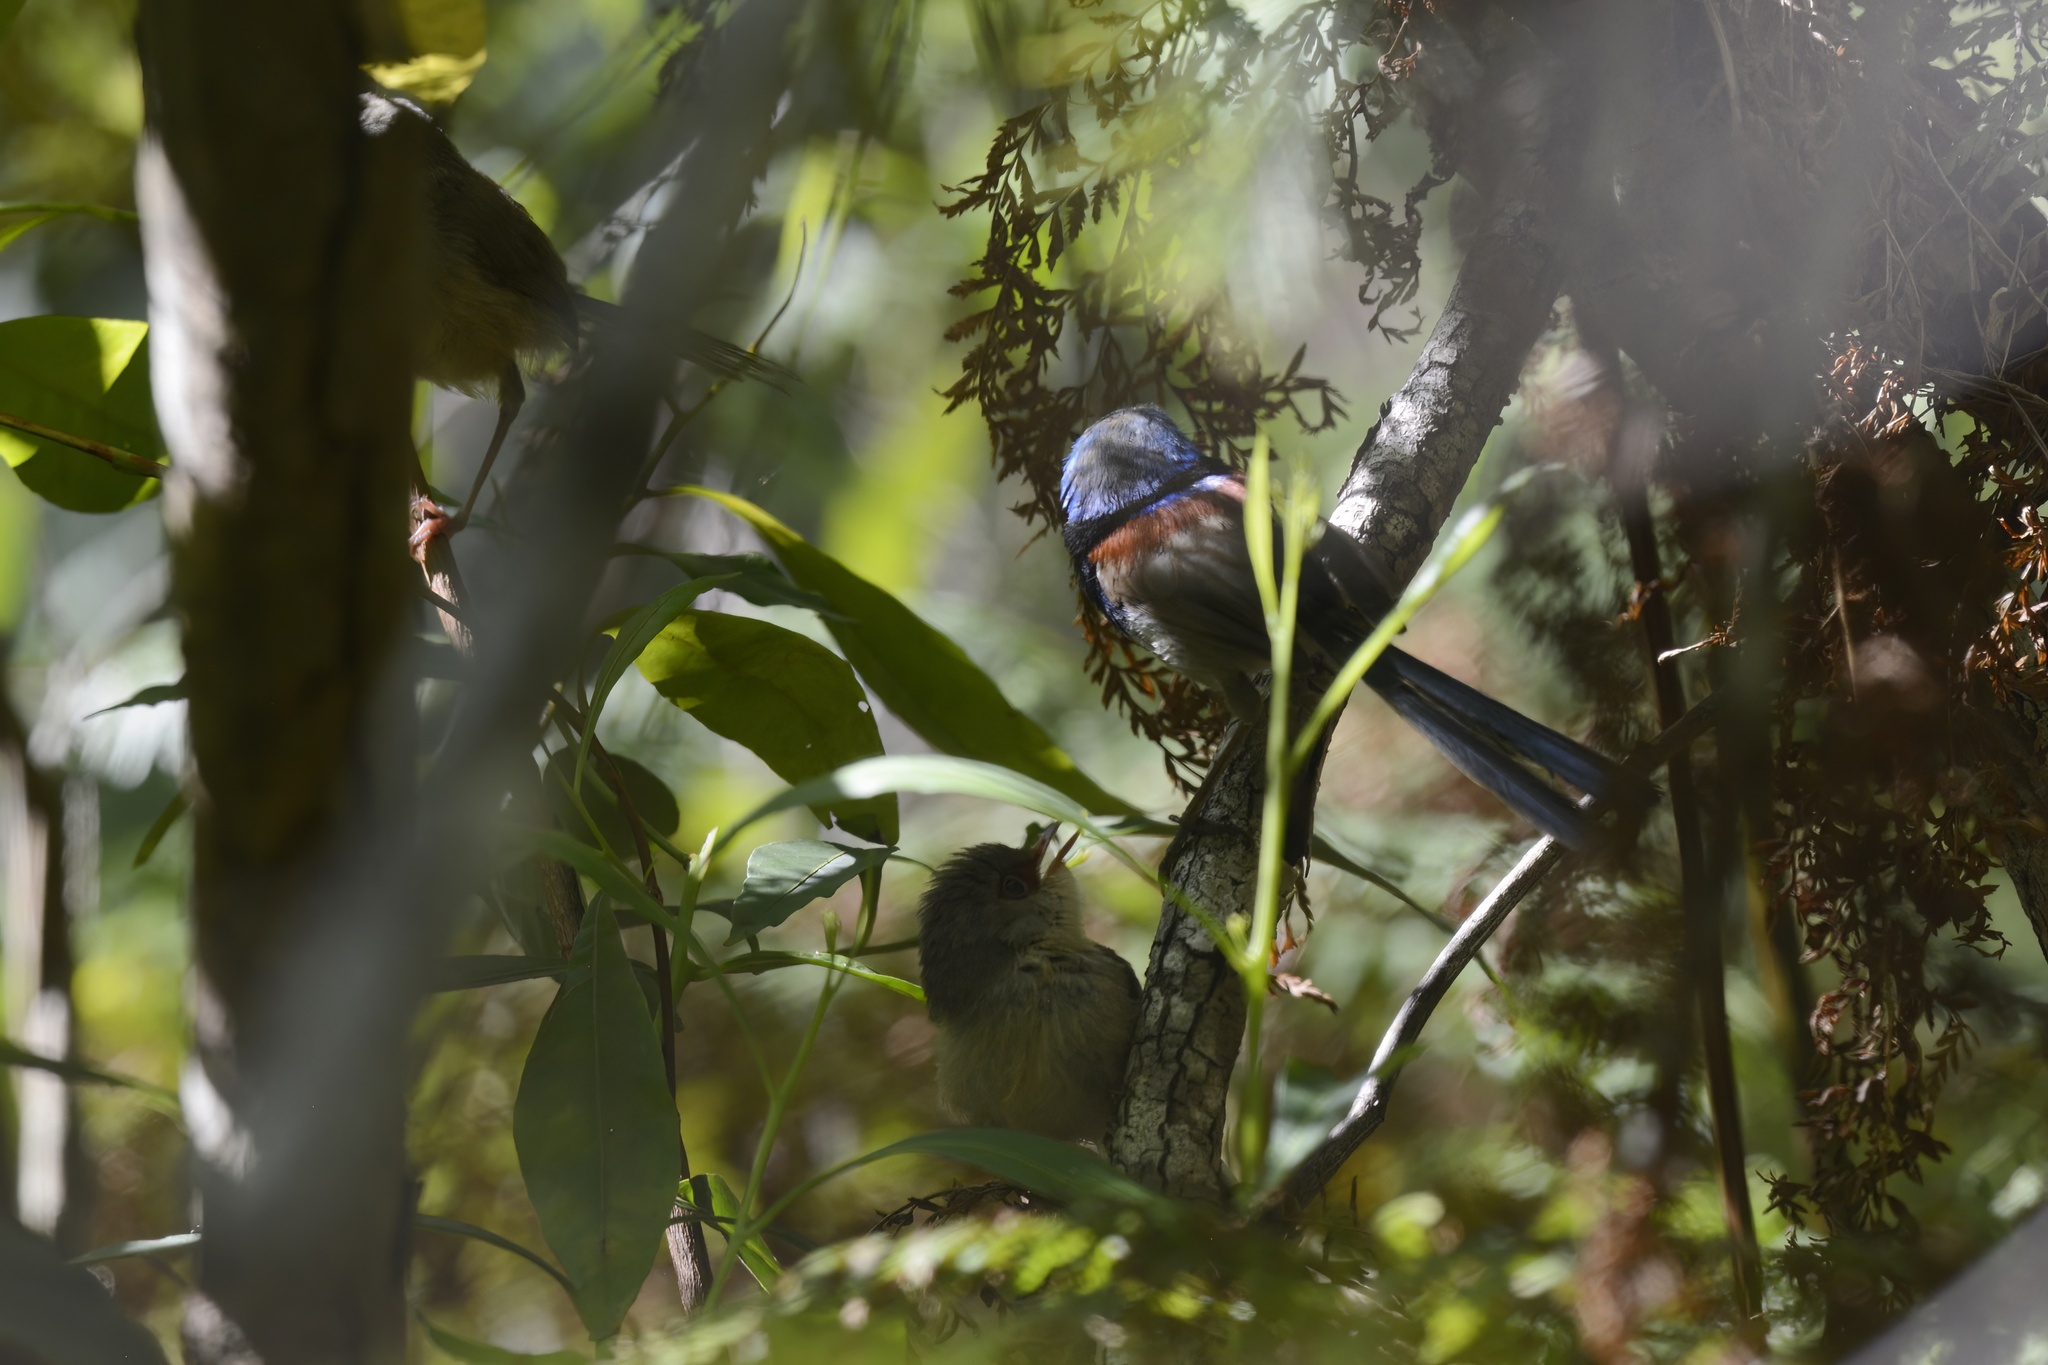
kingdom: Animalia
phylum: Chordata
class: Aves
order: Passeriformes
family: Maluridae
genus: Malurus
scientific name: Malurus lamberti
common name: Variegated fairywren
